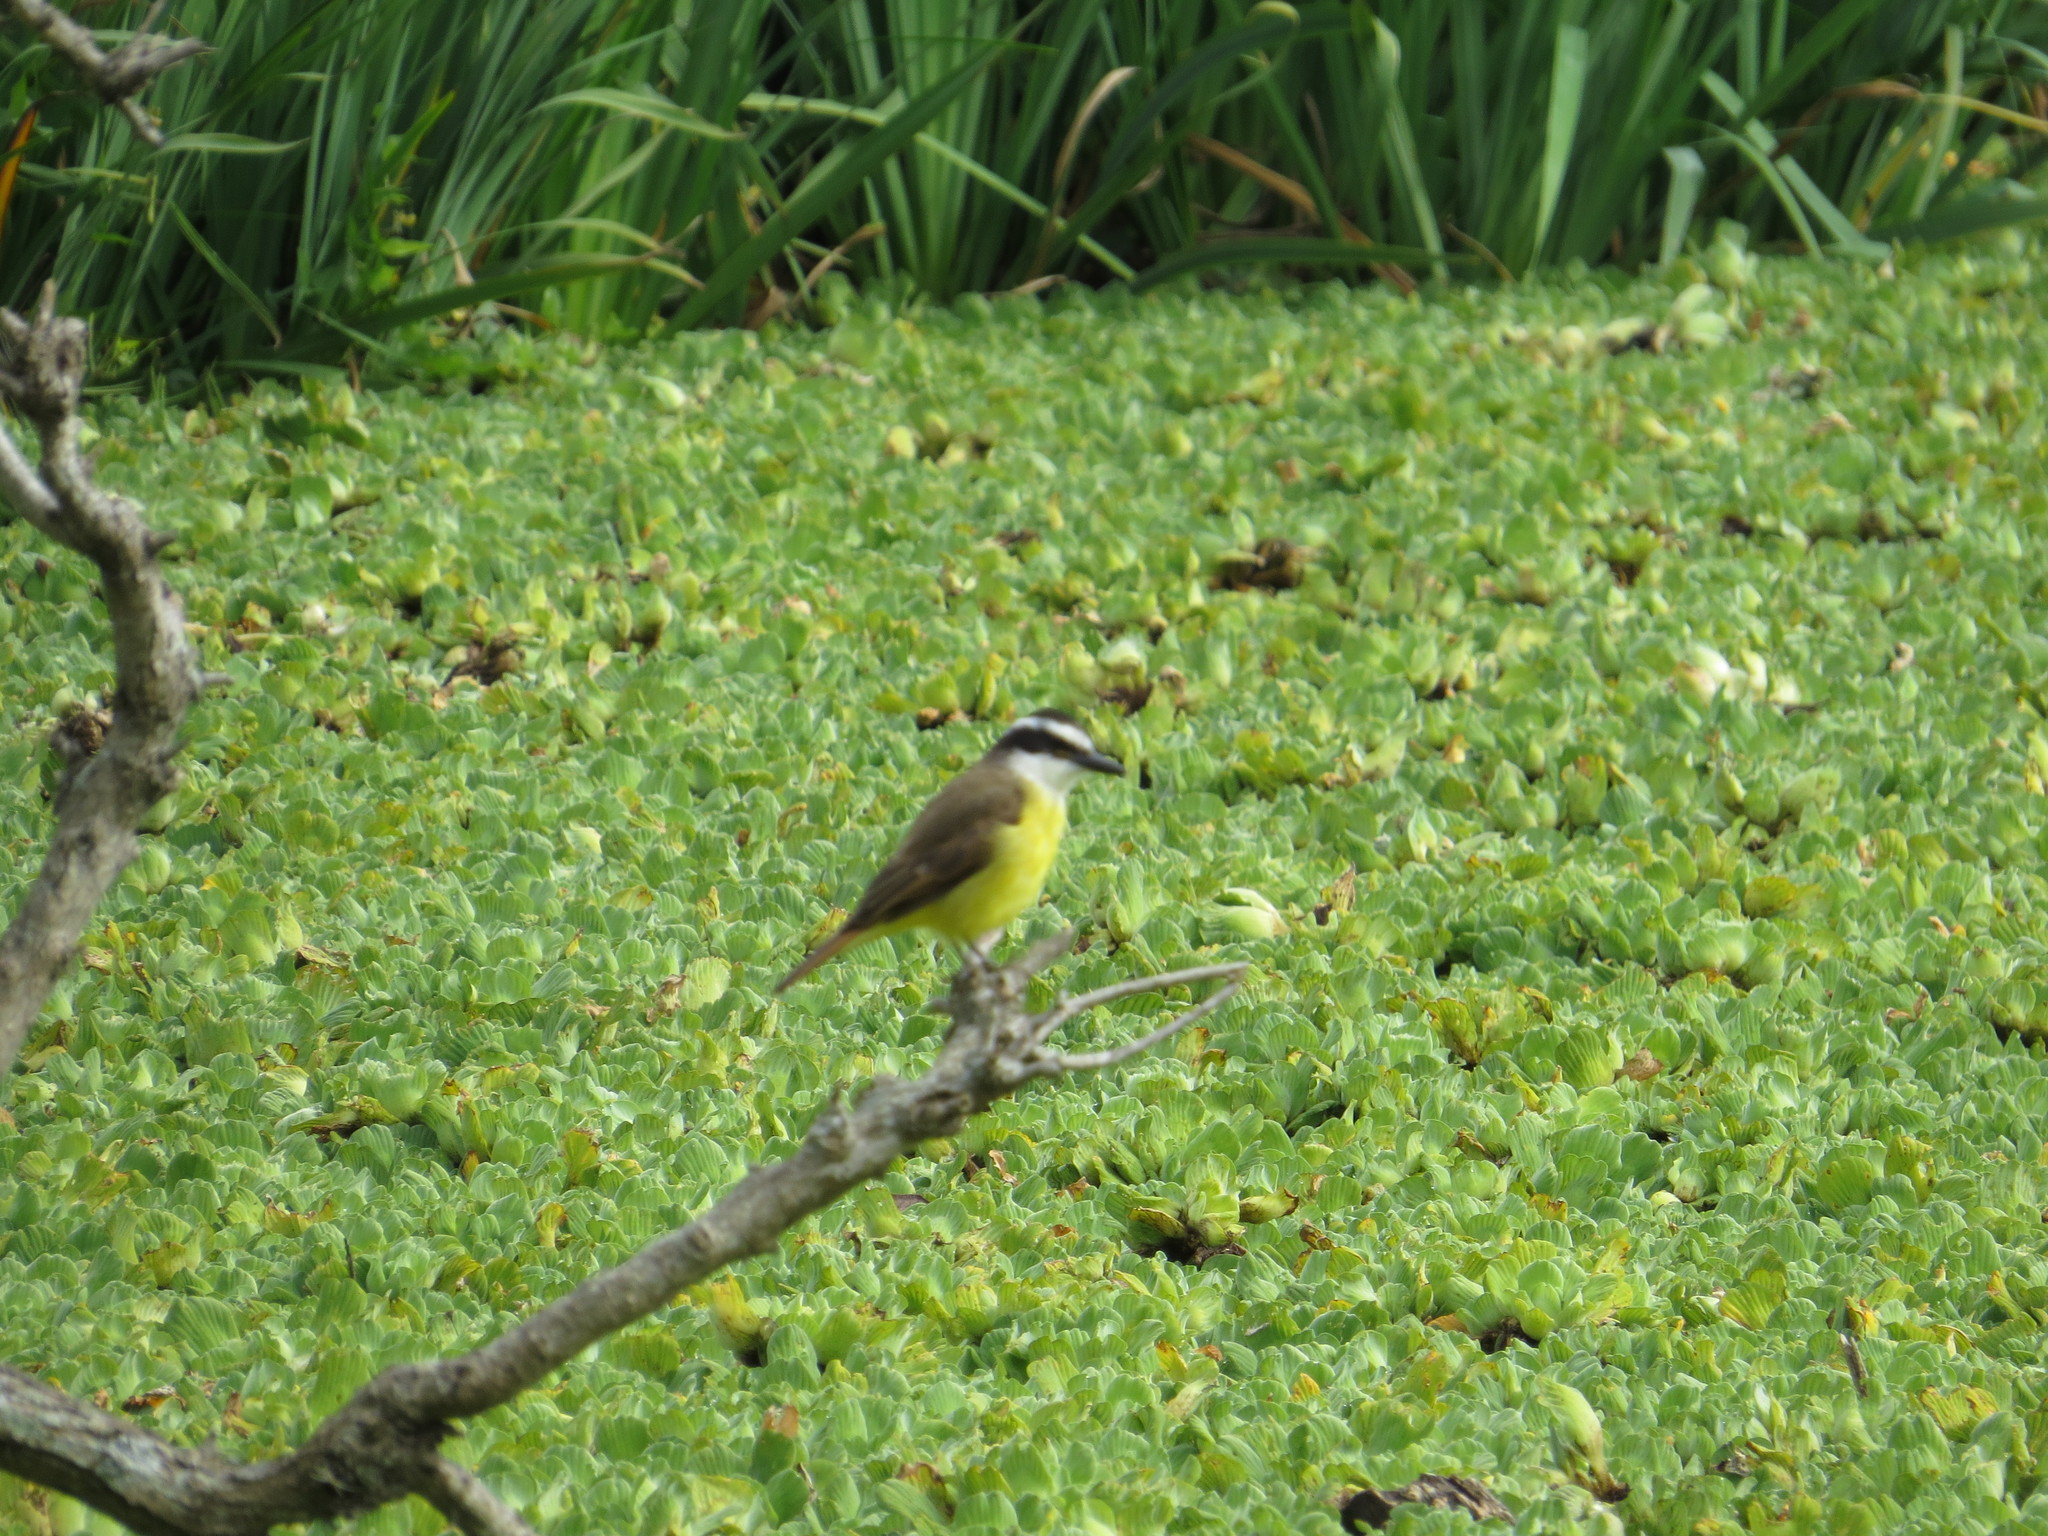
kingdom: Animalia
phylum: Chordata
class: Aves
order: Passeriformes
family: Tyrannidae
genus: Pitangus
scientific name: Pitangus sulphuratus
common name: Great kiskadee
